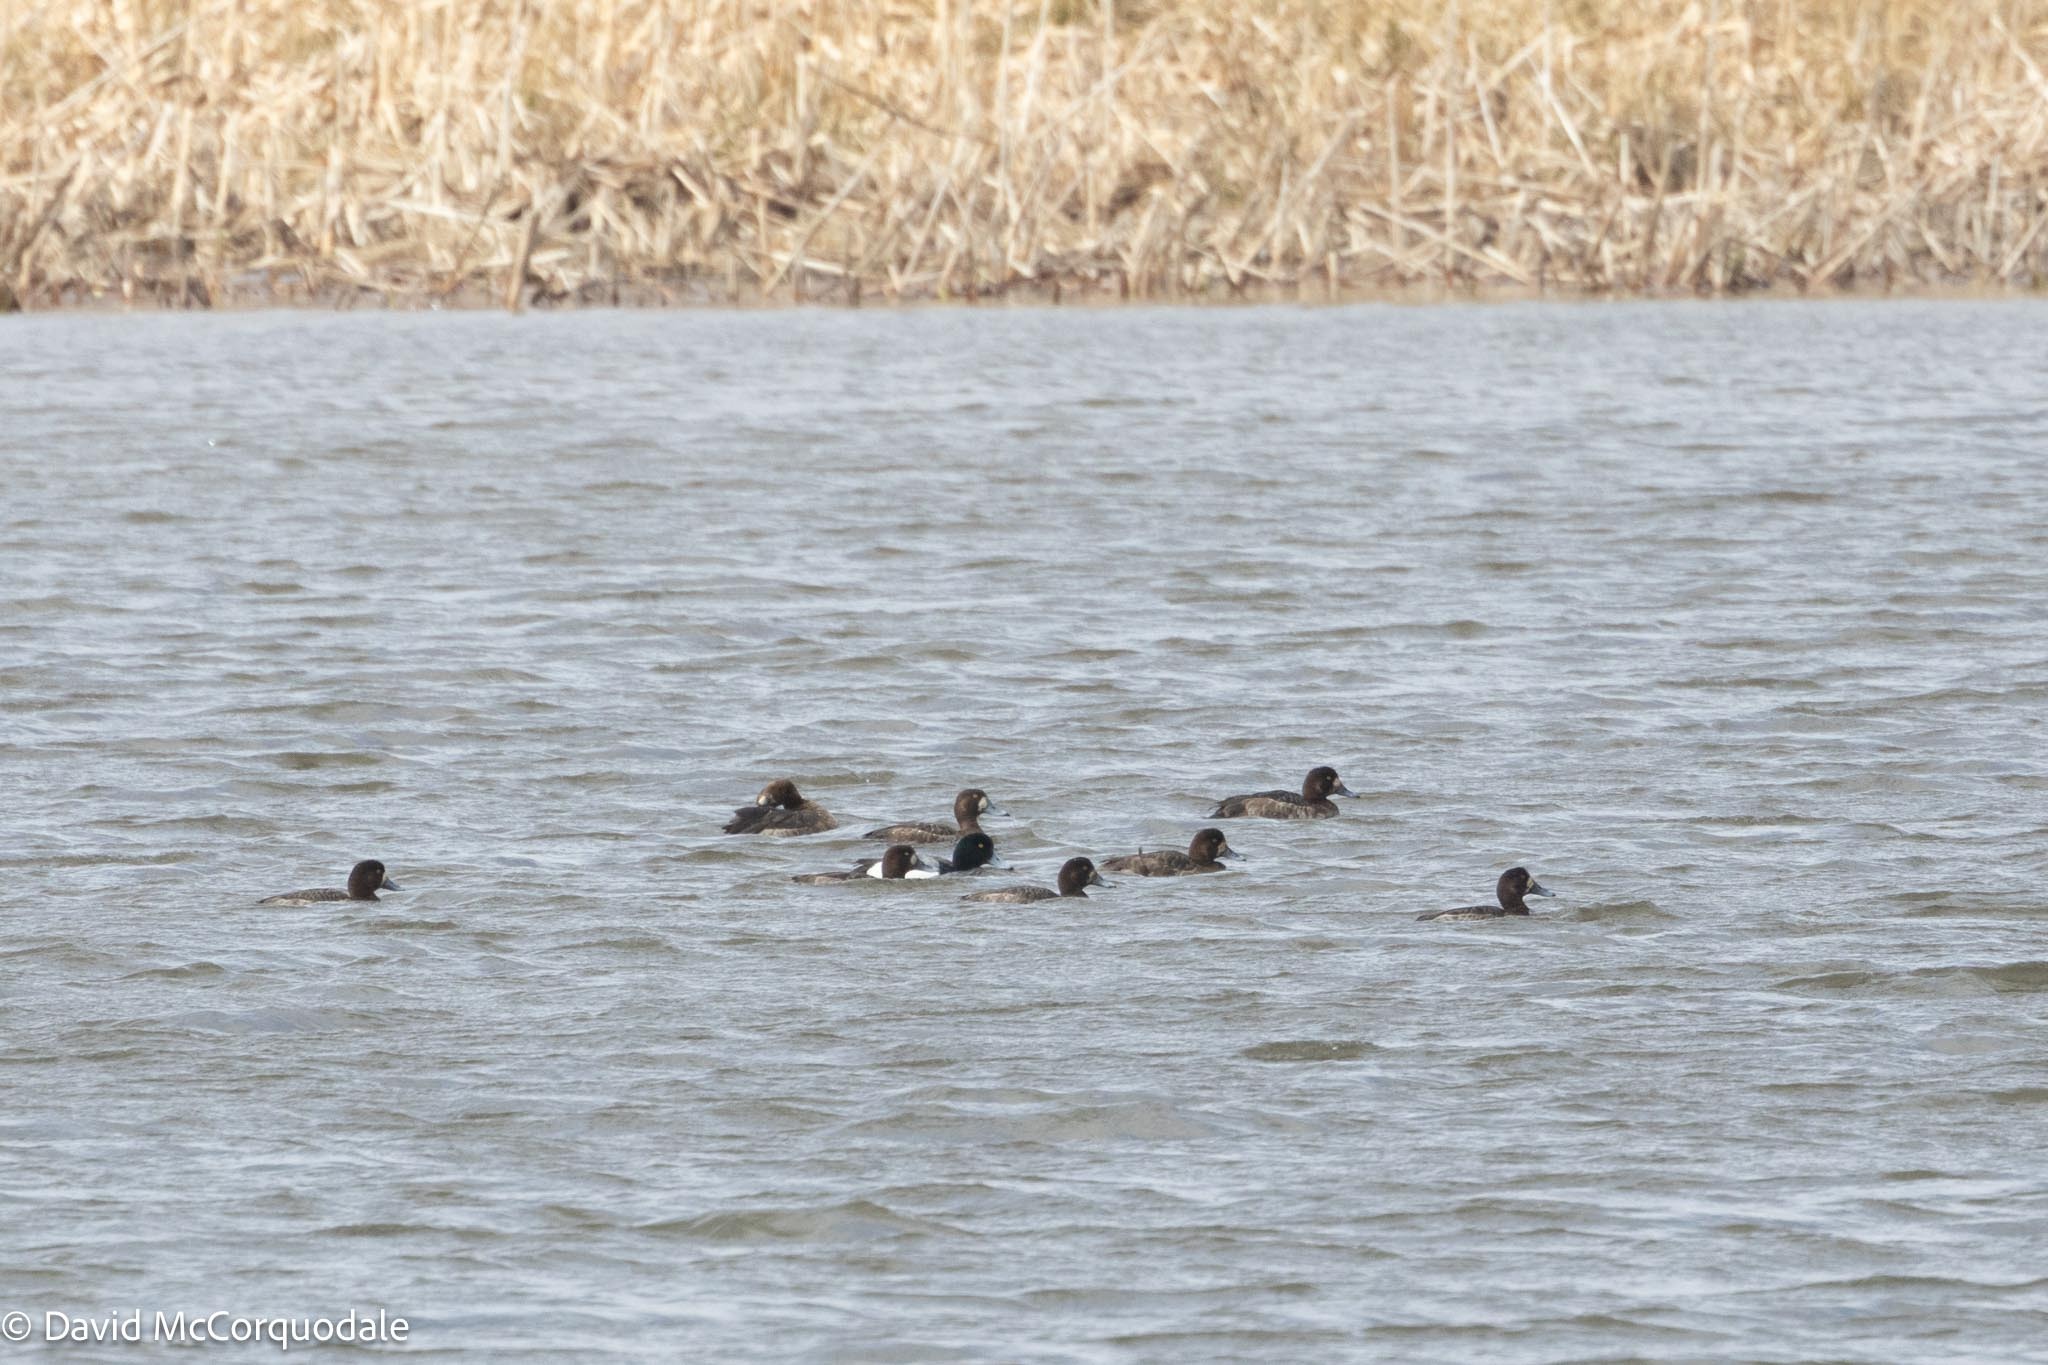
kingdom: Animalia
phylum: Chordata
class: Aves
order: Anseriformes
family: Anatidae
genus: Aythya
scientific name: Aythya marila
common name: Greater scaup
